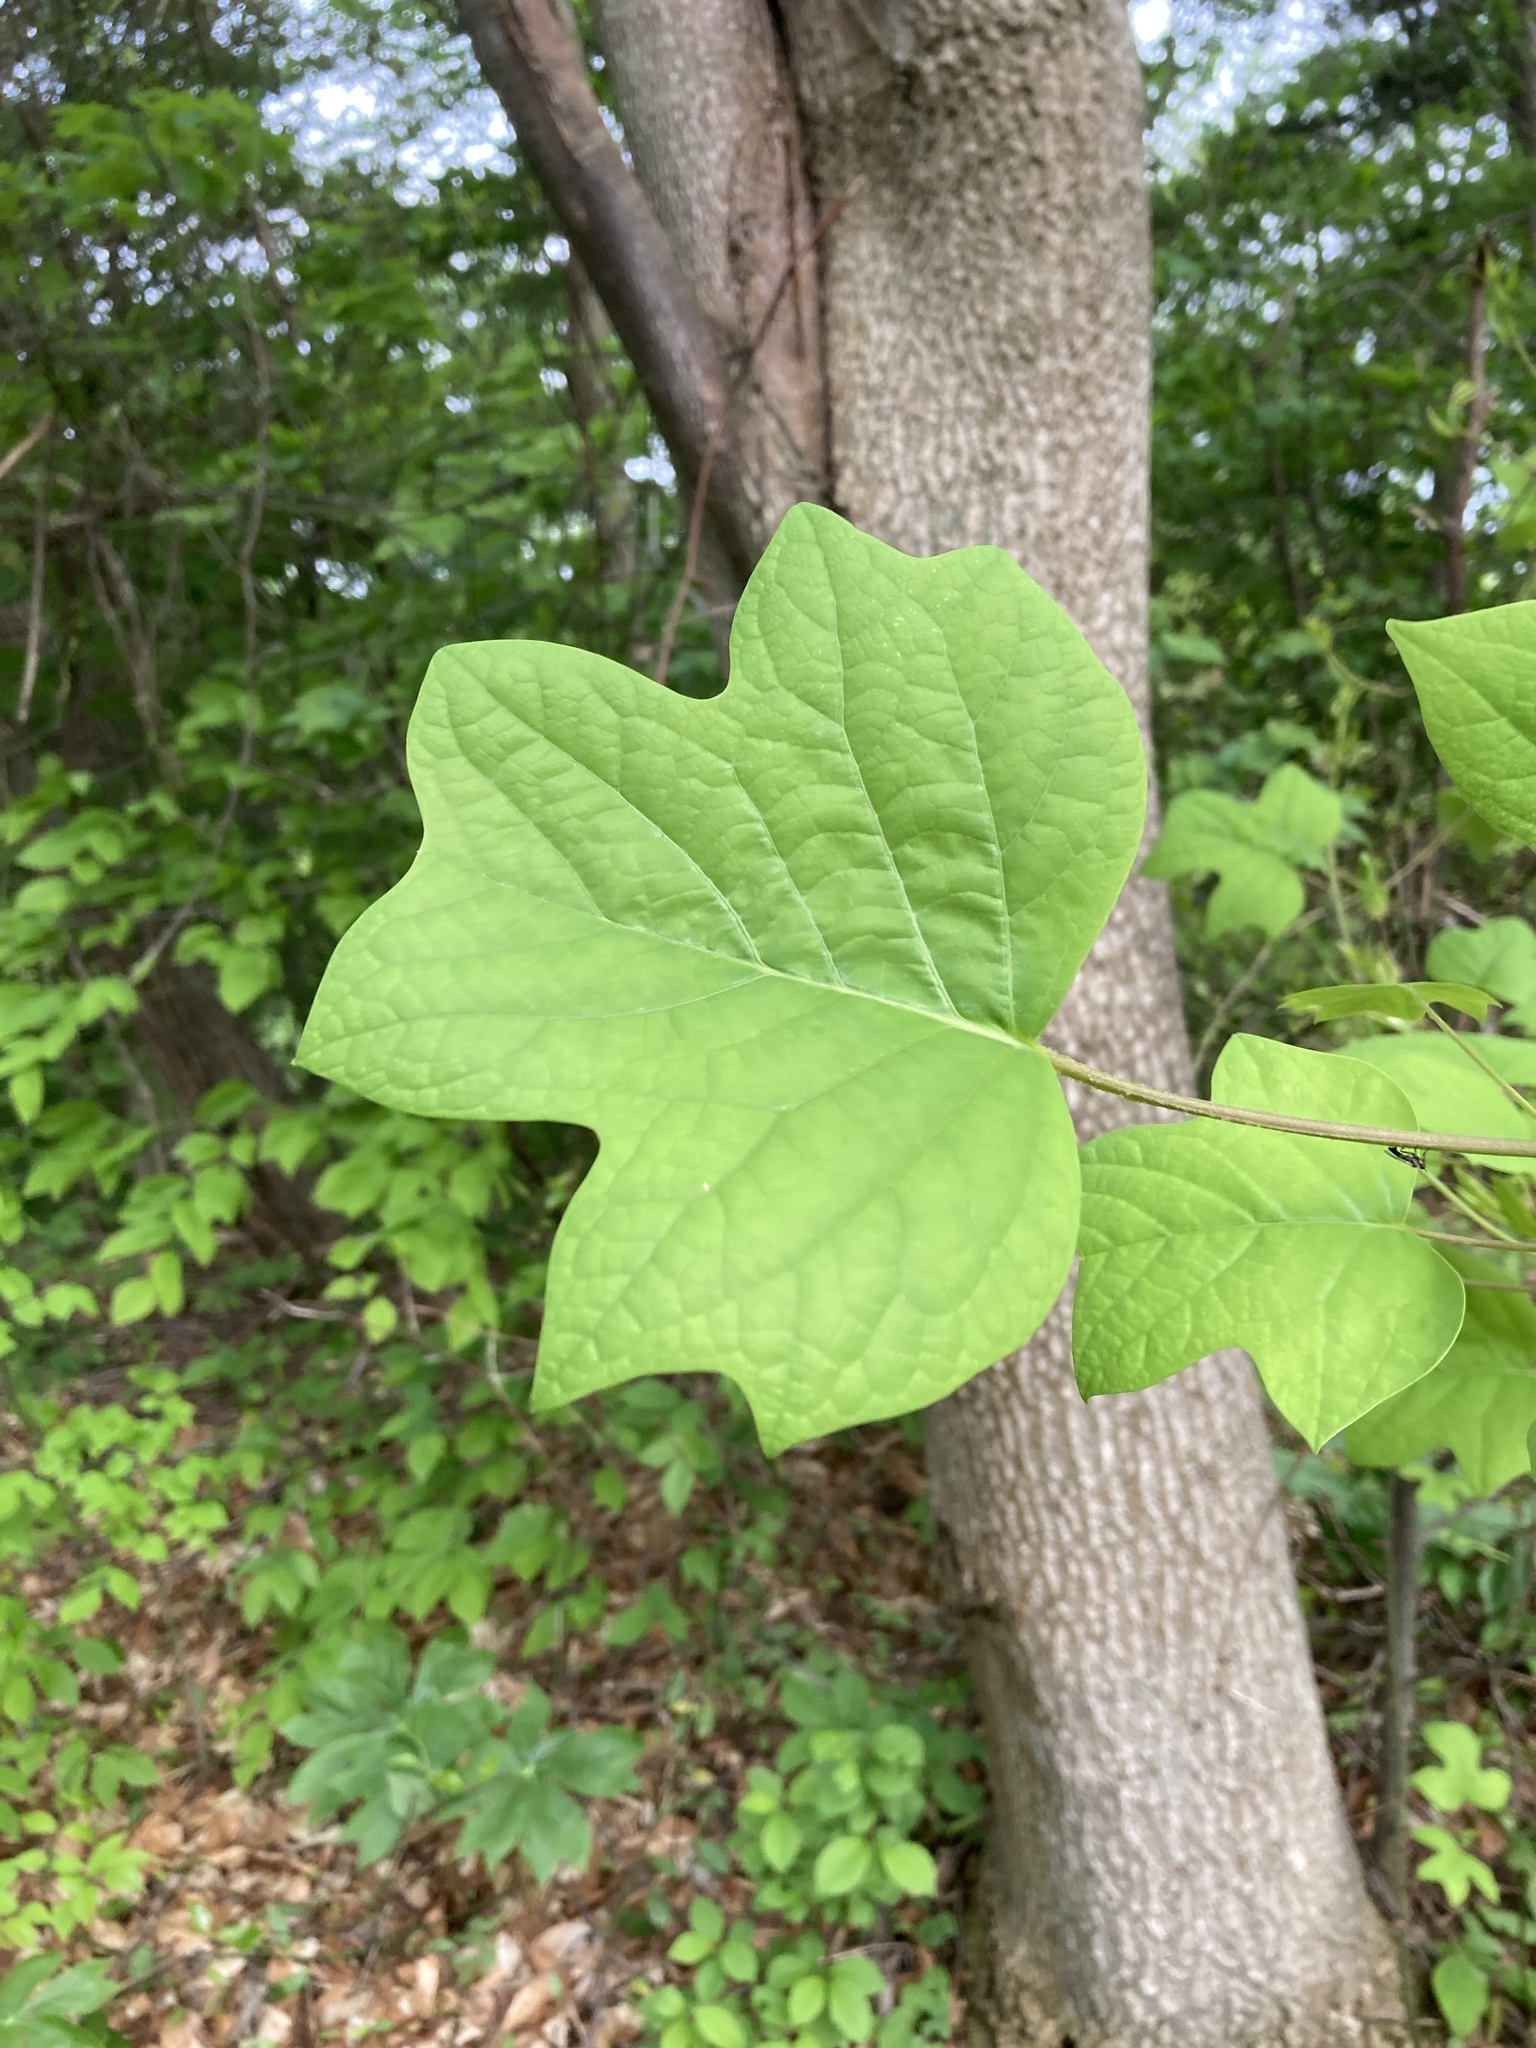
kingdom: Plantae
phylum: Tracheophyta
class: Magnoliopsida
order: Magnoliales
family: Magnoliaceae
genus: Liriodendron
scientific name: Liriodendron tulipifera
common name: Tulip tree
